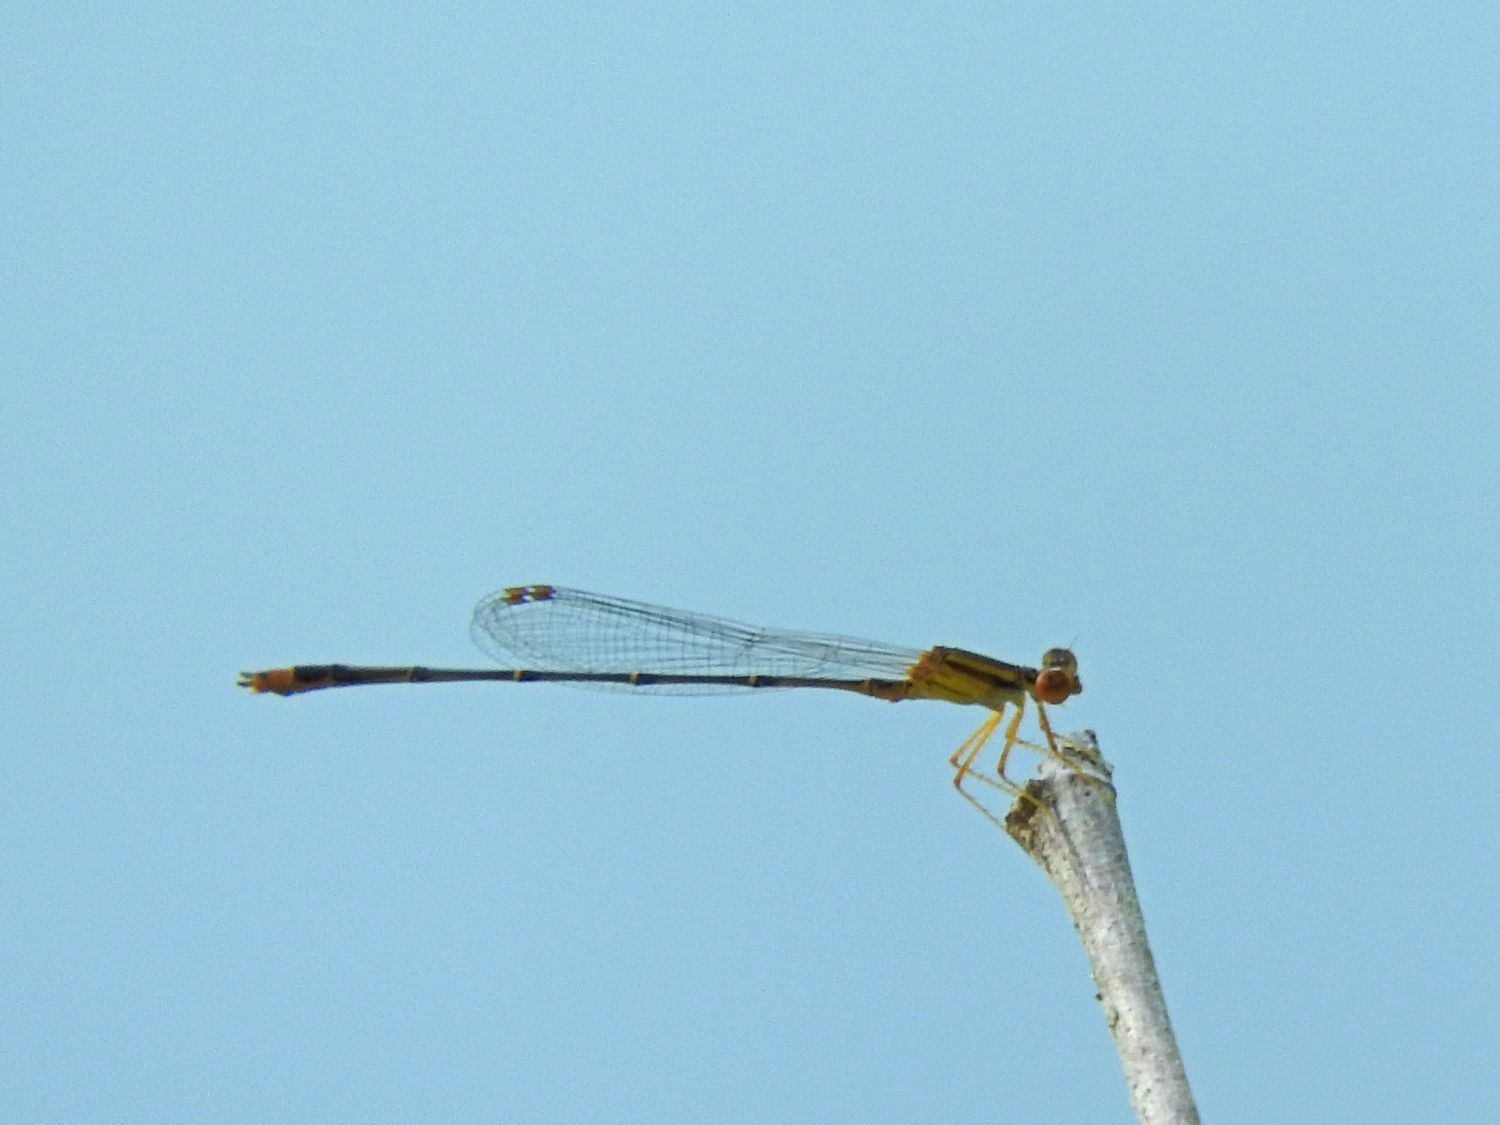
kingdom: Animalia
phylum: Arthropoda
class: Insecta
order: Odonata
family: Coenagrionidae
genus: Enallagma
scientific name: Enallagma signatum
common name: Orange bluet
